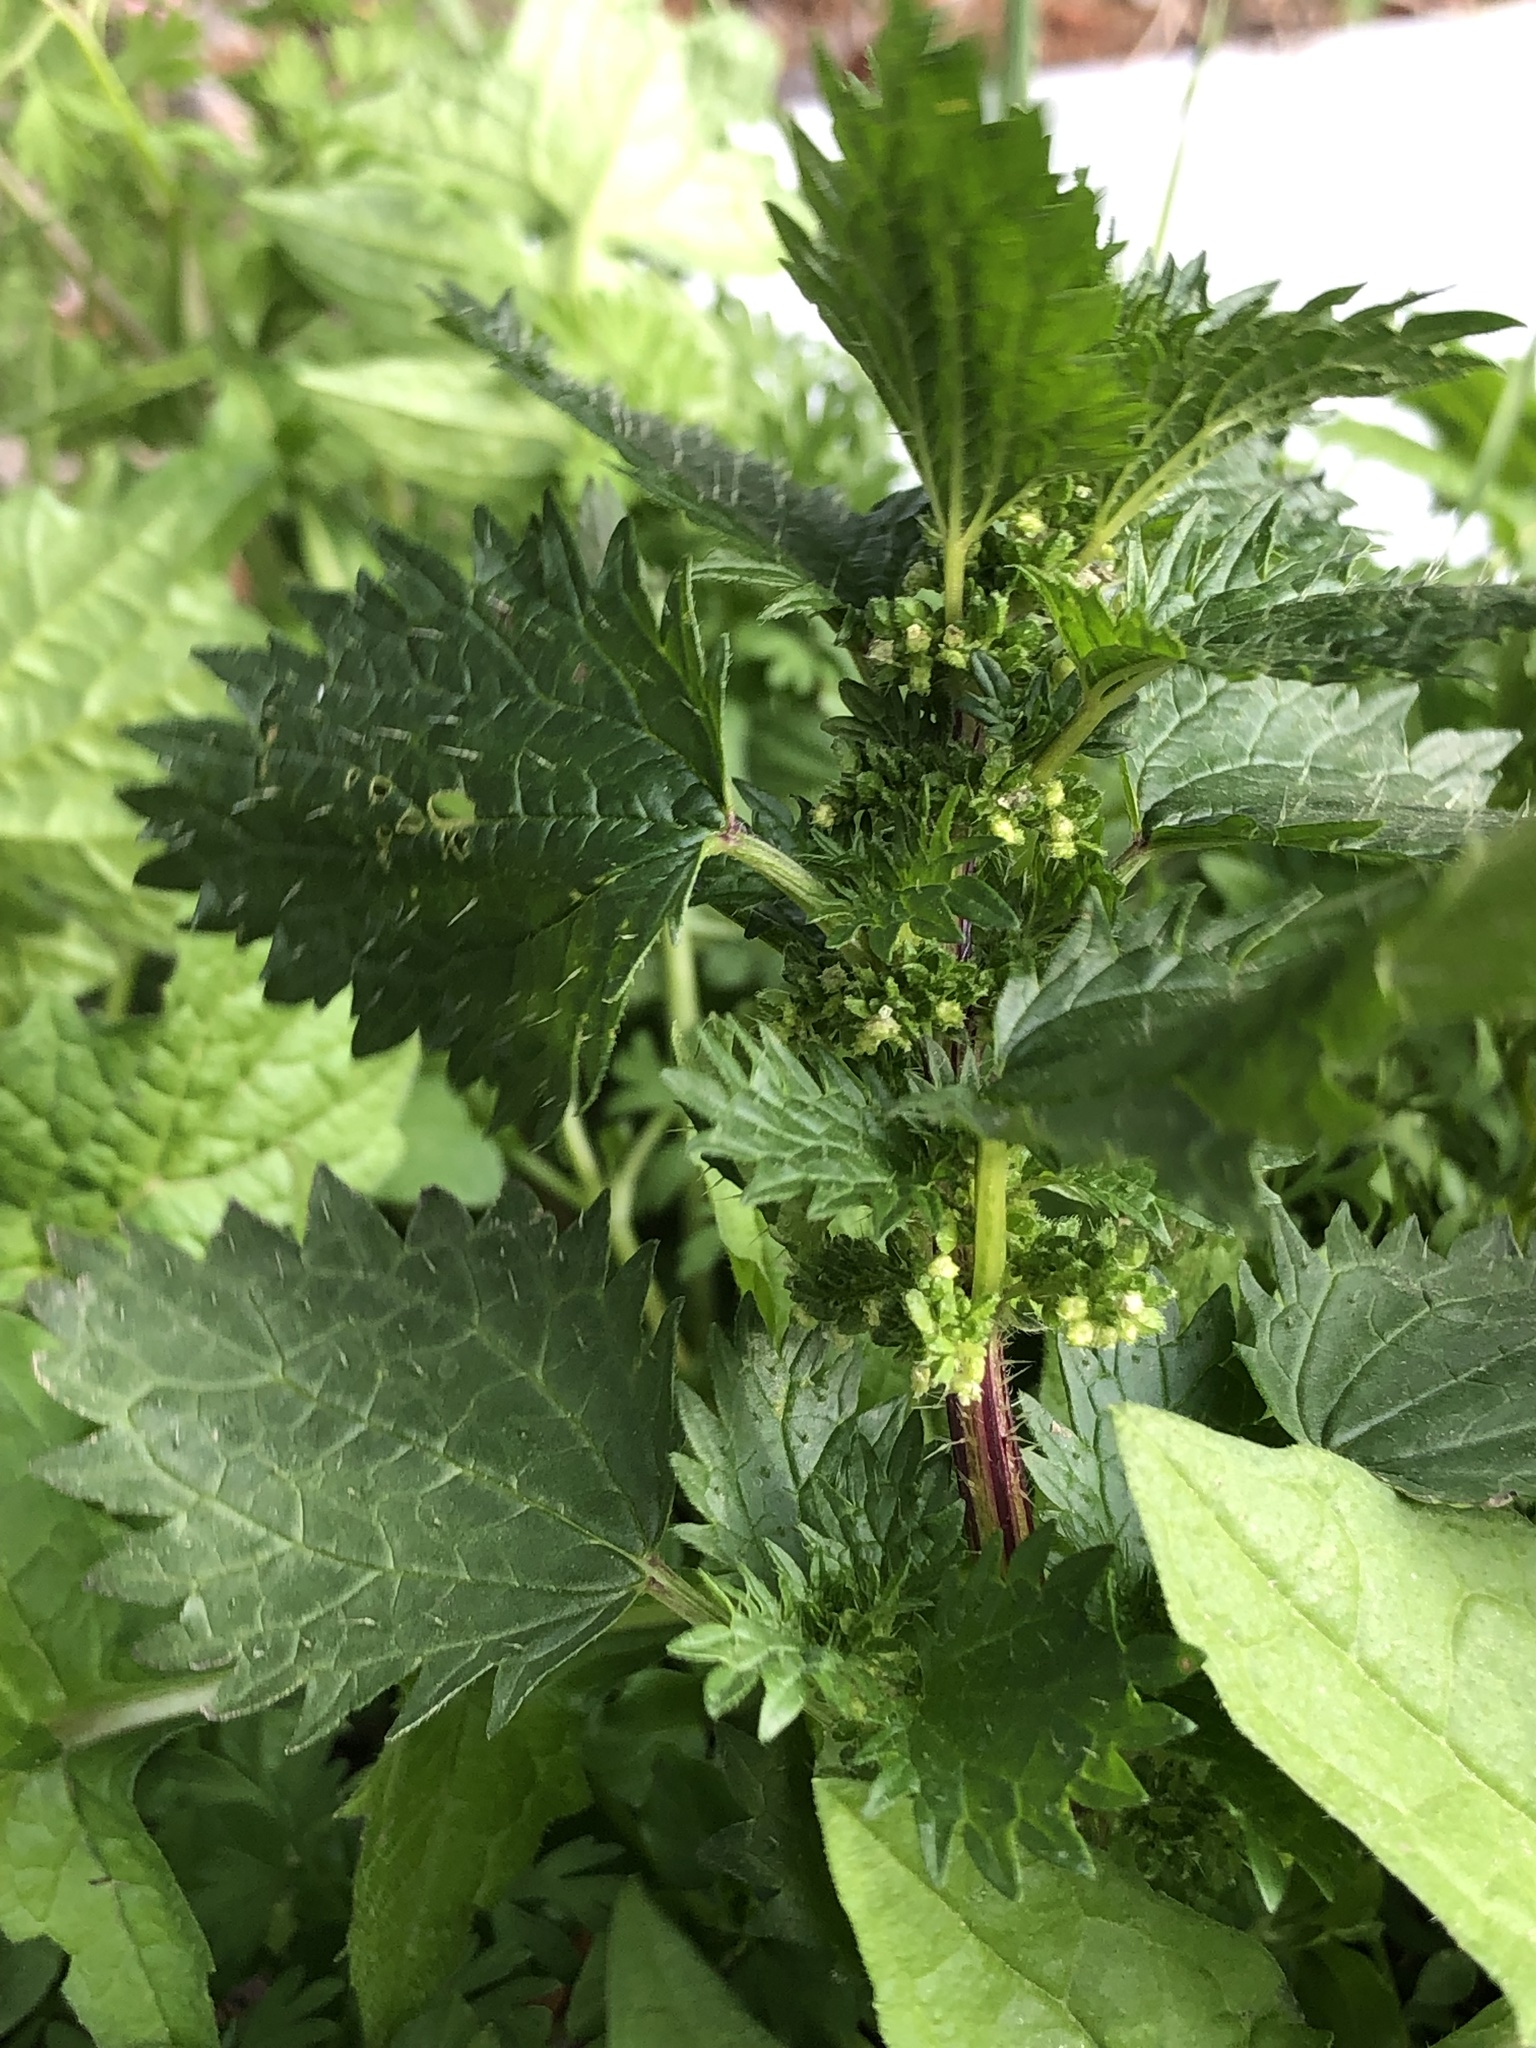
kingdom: Plantae
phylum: Tracheophyta
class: Magnoliopsida
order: Rosales
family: Urticaceae
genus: Urtica
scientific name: Urtica urens
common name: Dwarf nettle
